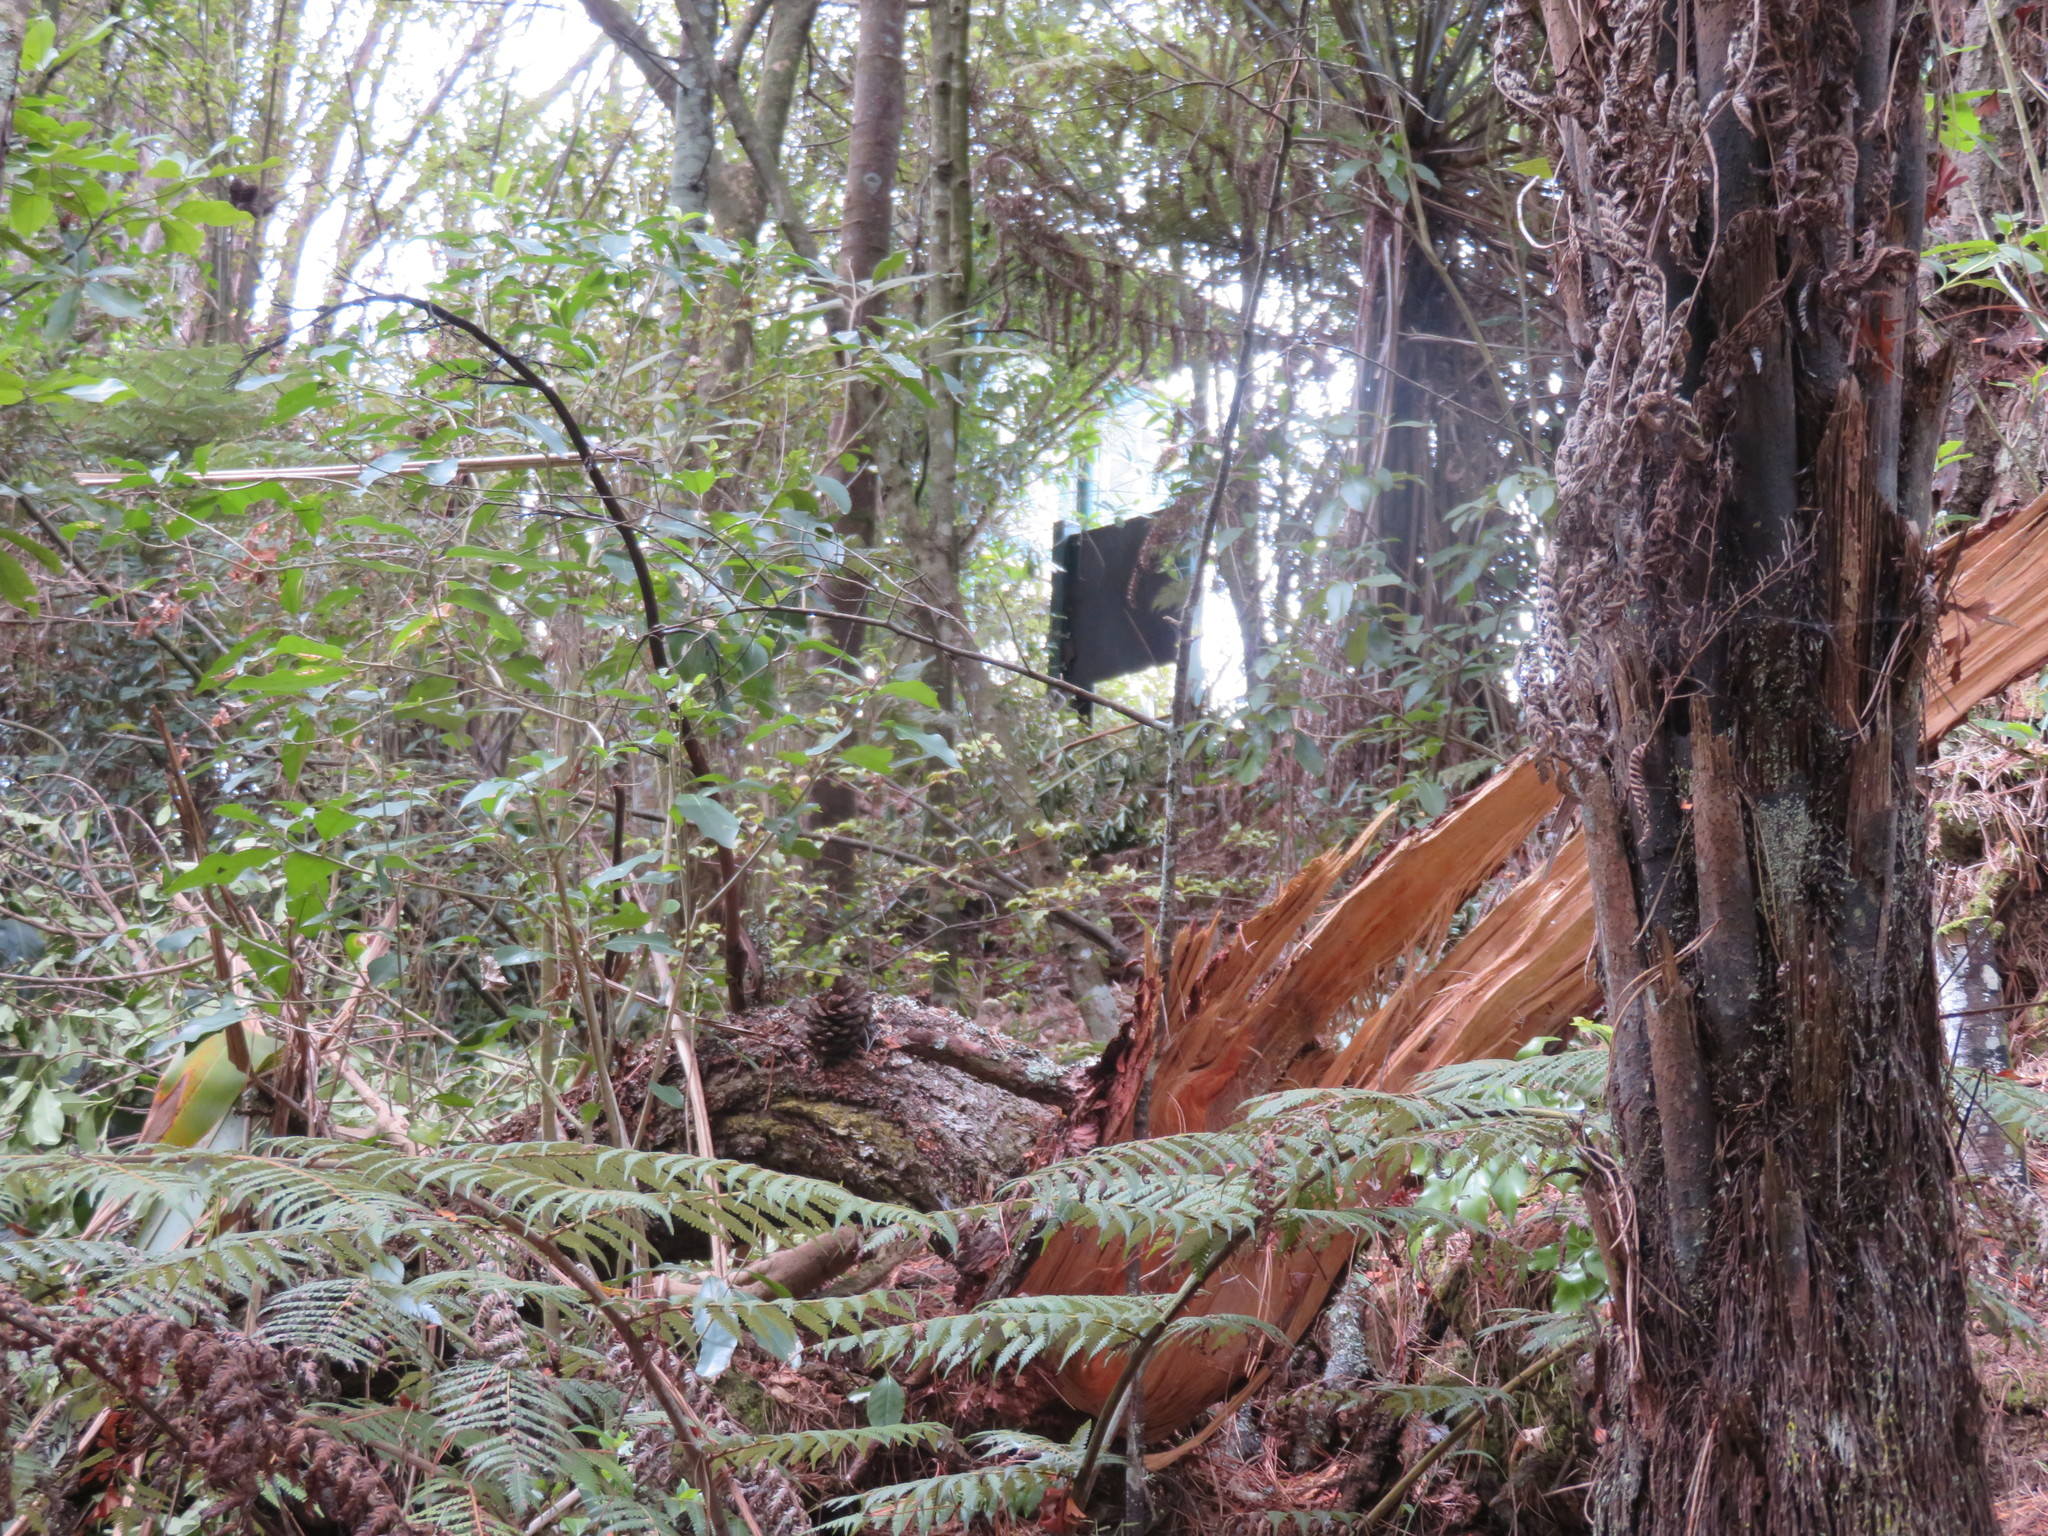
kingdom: Plantae
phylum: Tracheophyta
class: Pinopsida
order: Pinales
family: Pinaceae
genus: Pinus
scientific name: Pinus radiata
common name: Monterey pine
